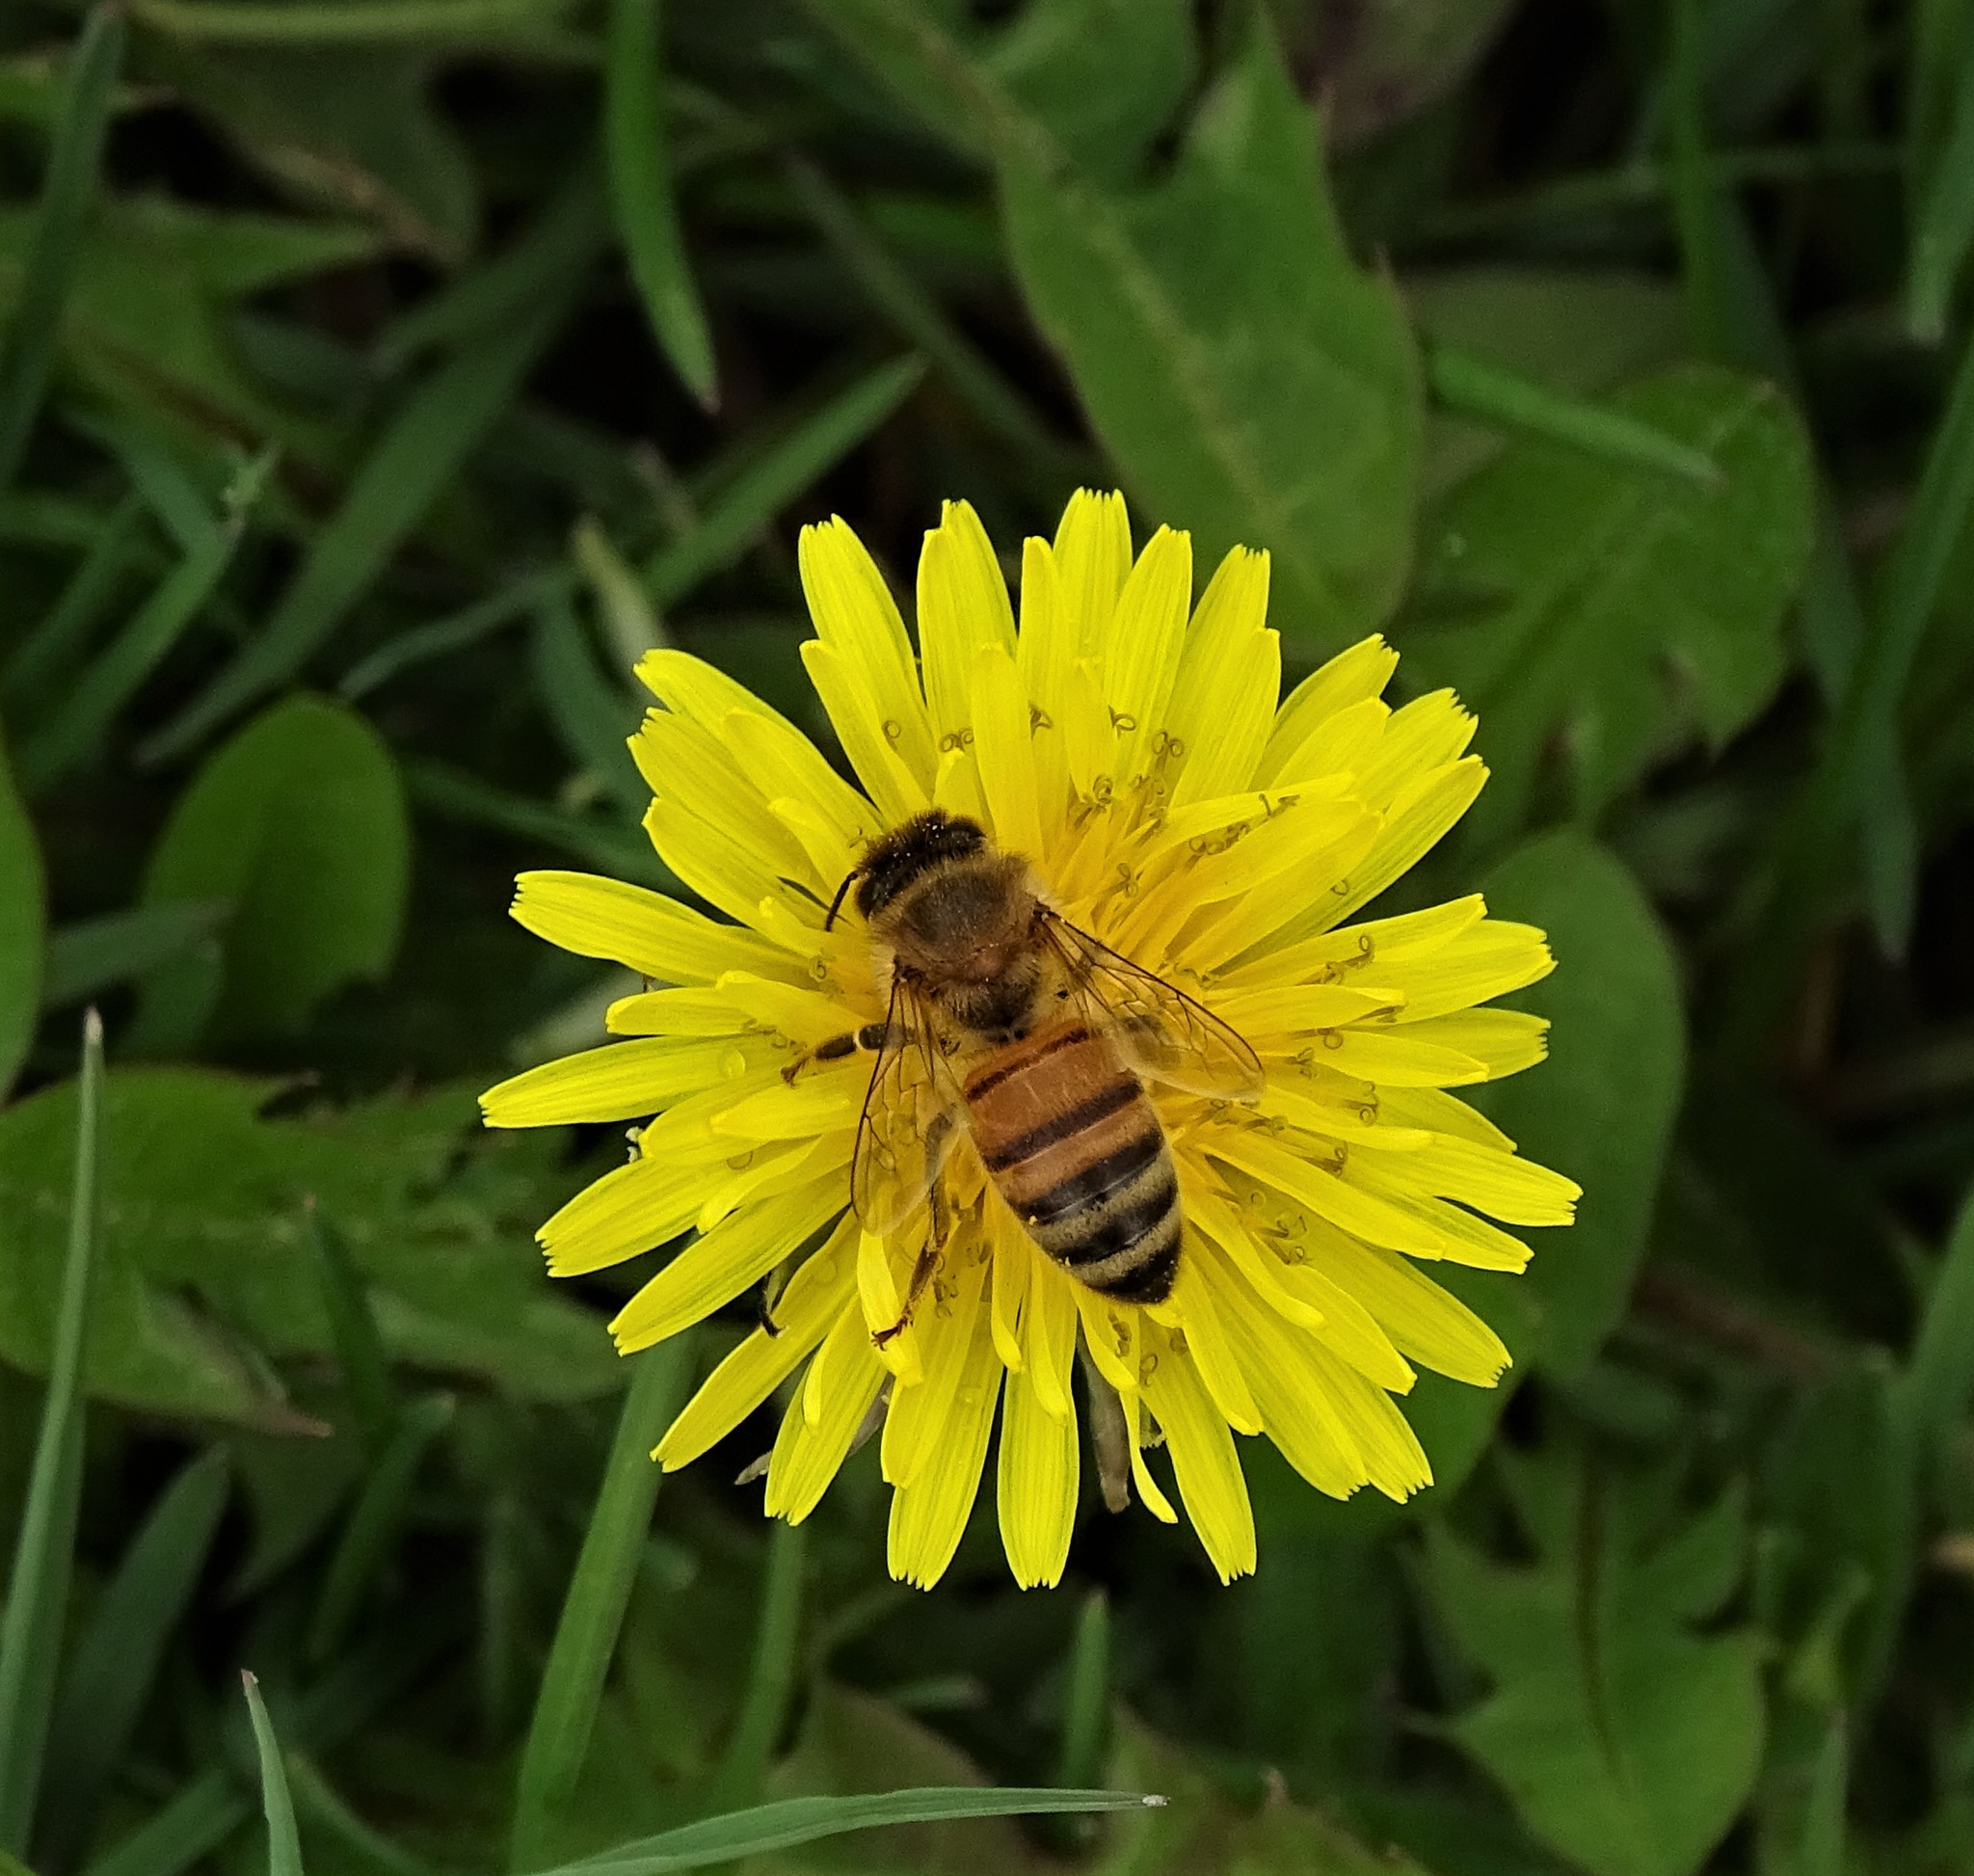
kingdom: Animalia
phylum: Arthropoda
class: Insecta
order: Hymenoptera
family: Apidae
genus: Apis
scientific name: Apis mellifera
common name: Honey bee
